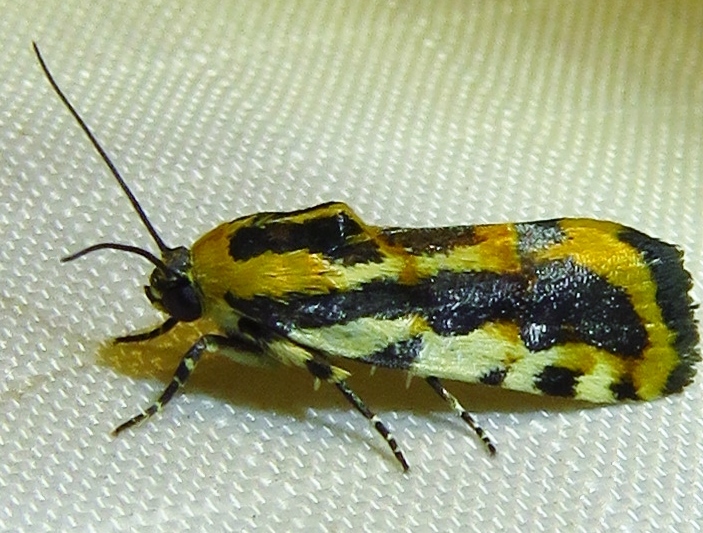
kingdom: Animalia
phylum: Arthropoda
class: Insecta
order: Lepidoptera
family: Noctuidae
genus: Acontia
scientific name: Acontia leo
